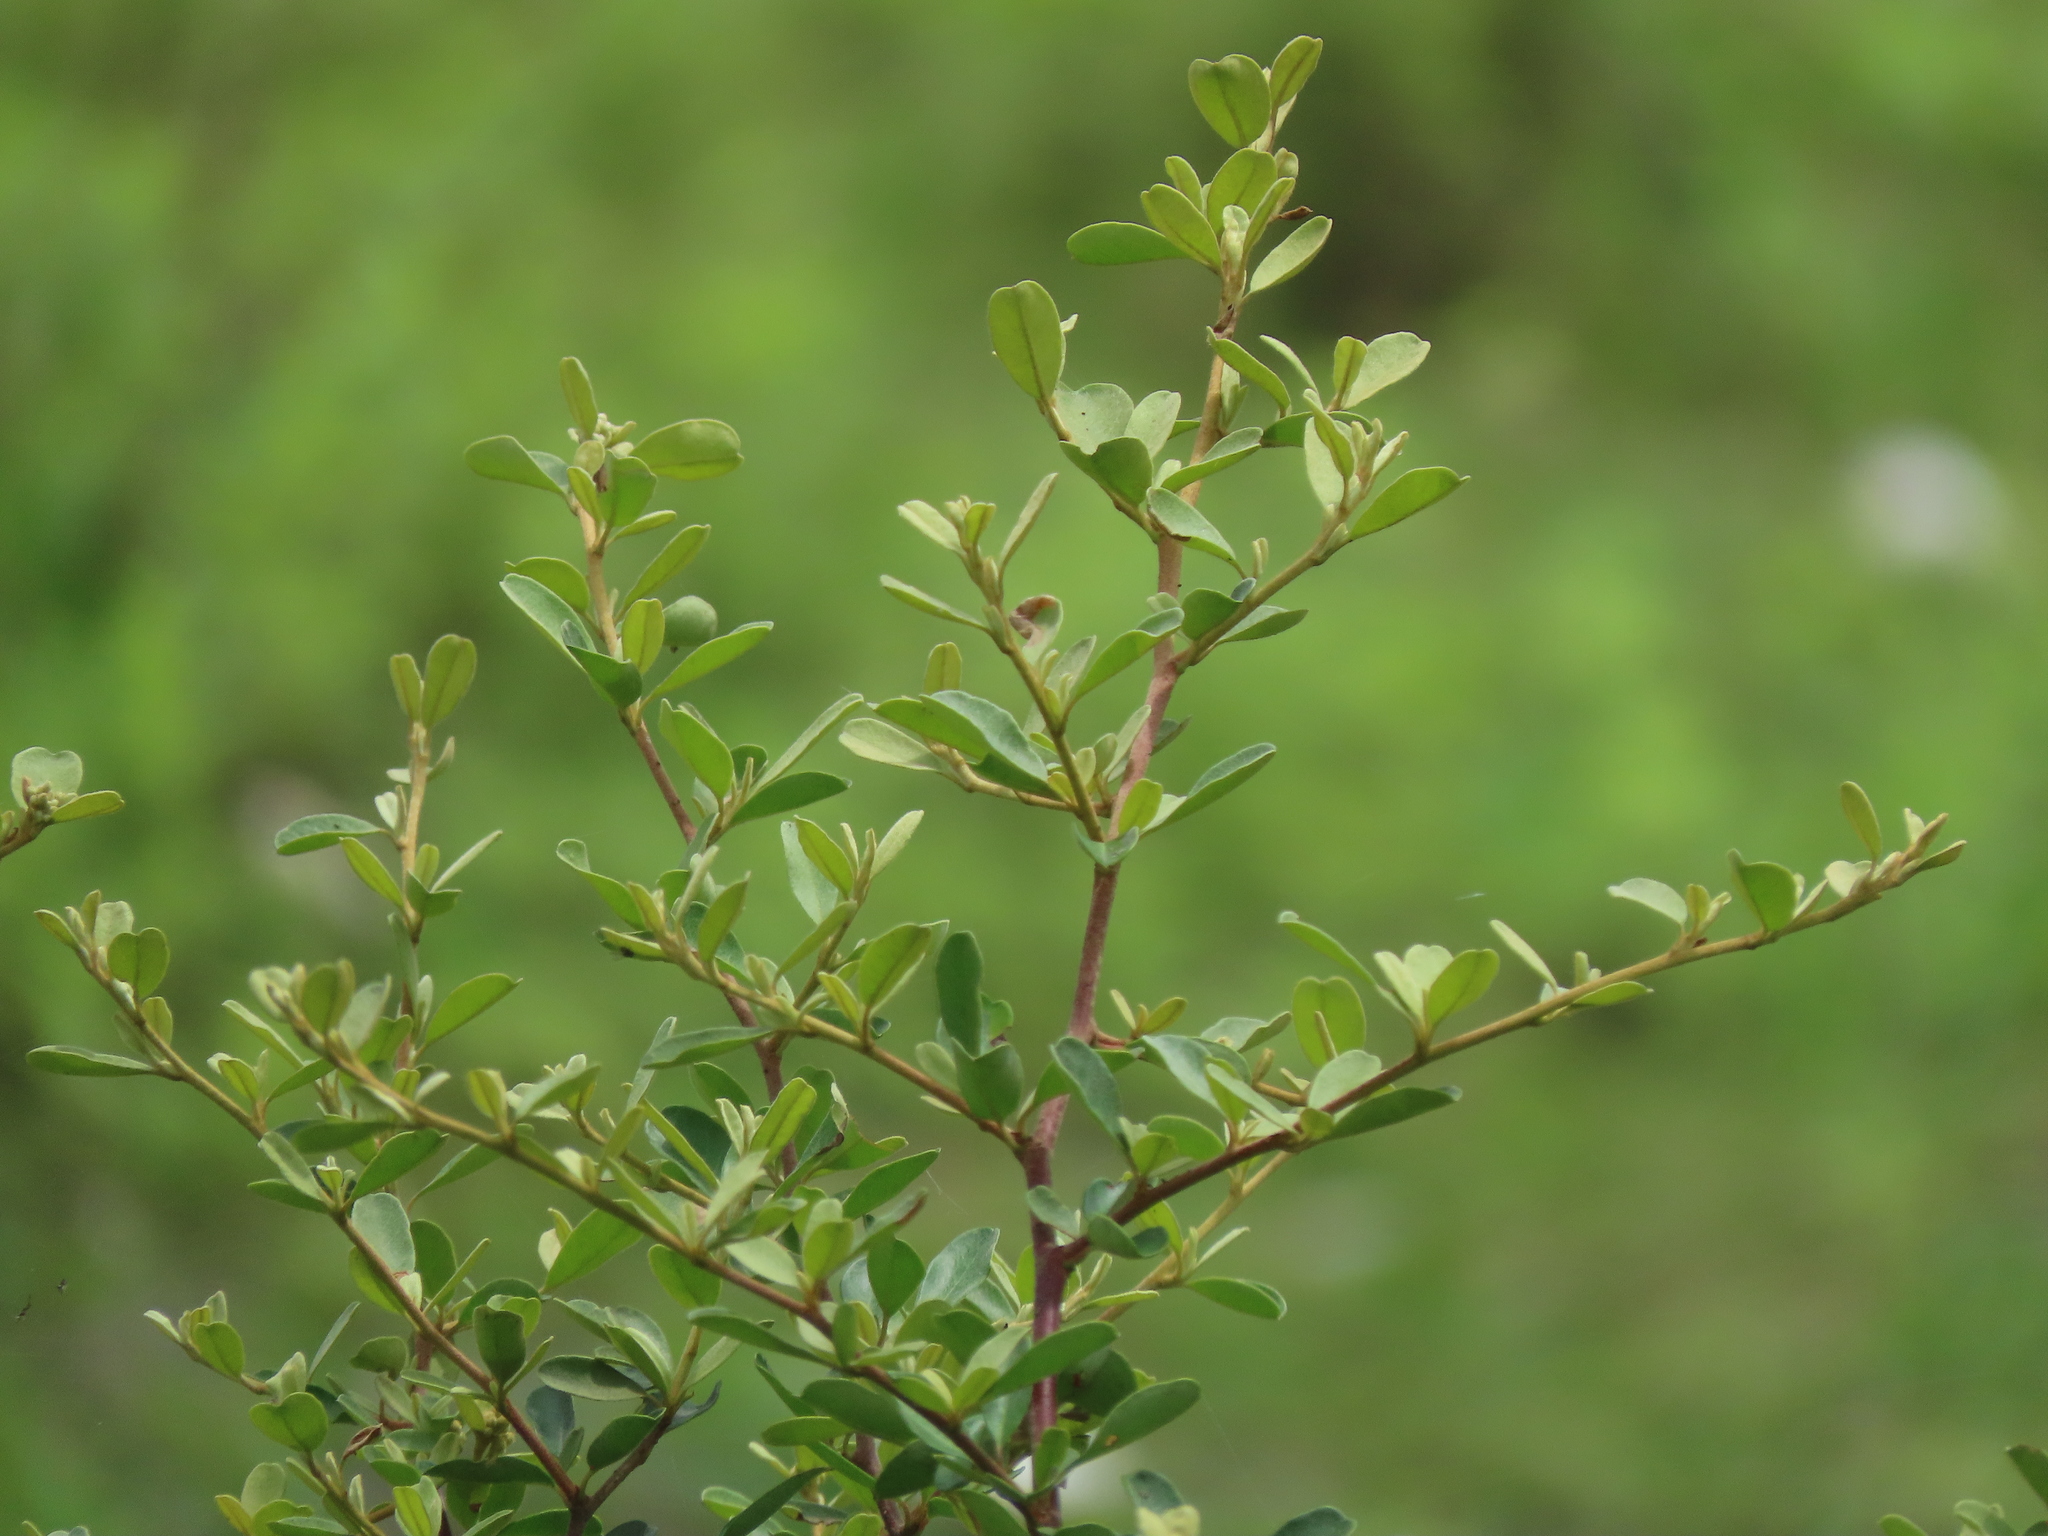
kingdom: Plantae
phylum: Tracheophyta
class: Magnoliopsida
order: Rosales
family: Rosaceae
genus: Pyracantha
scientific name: Pyracantha koidzumii
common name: Formosa firethorn
